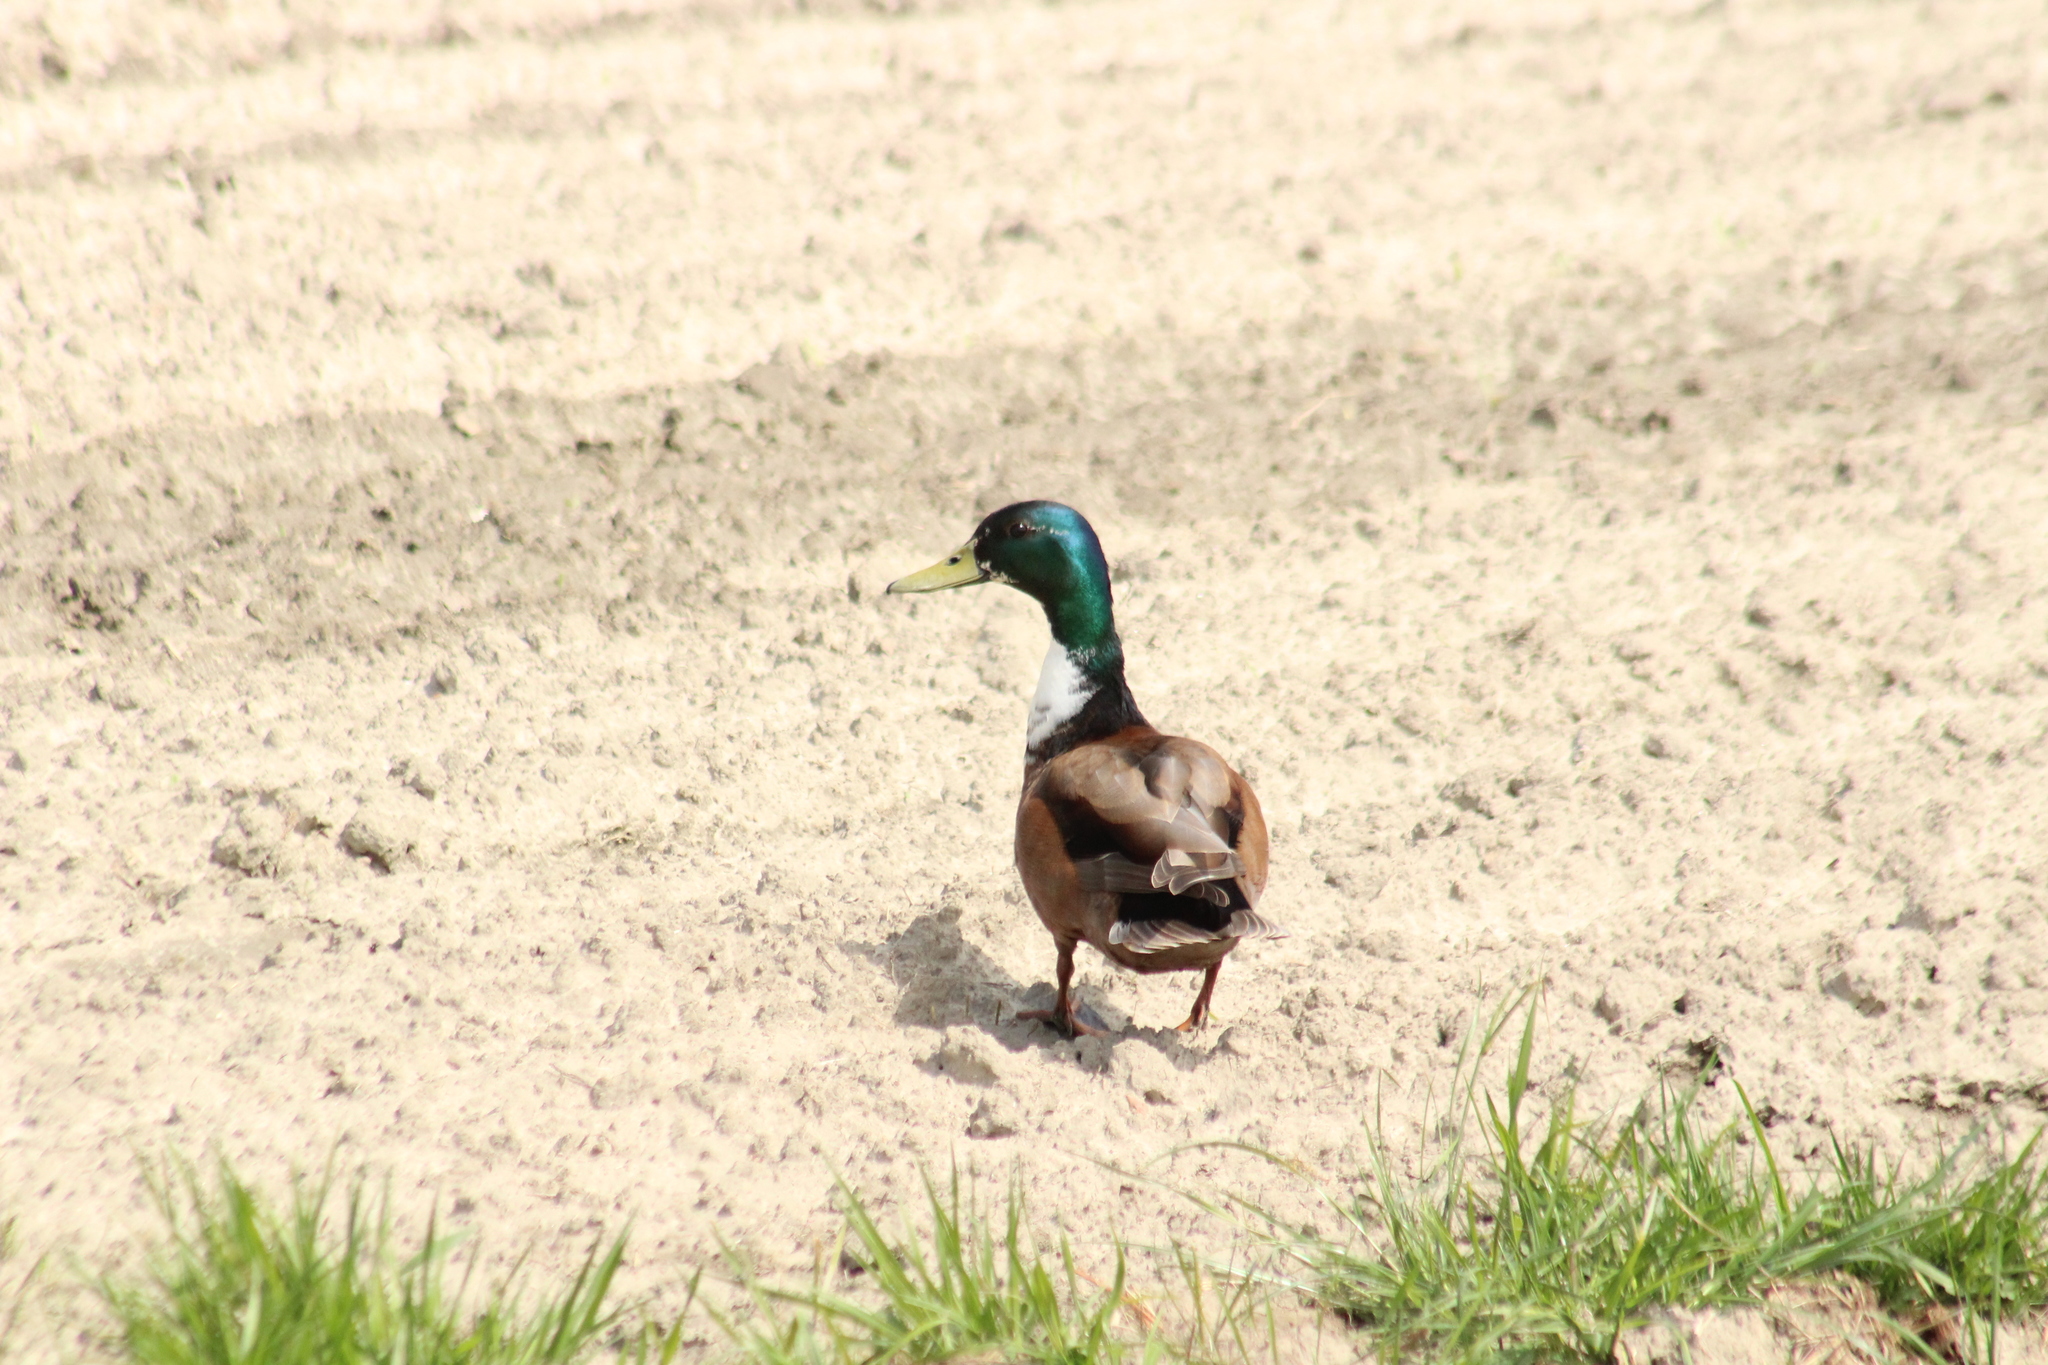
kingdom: Animalia
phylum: Chordata
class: Aves
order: Anseriformes
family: Anatidae
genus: Anas
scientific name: Anas platyrhynchos
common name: Mallard
